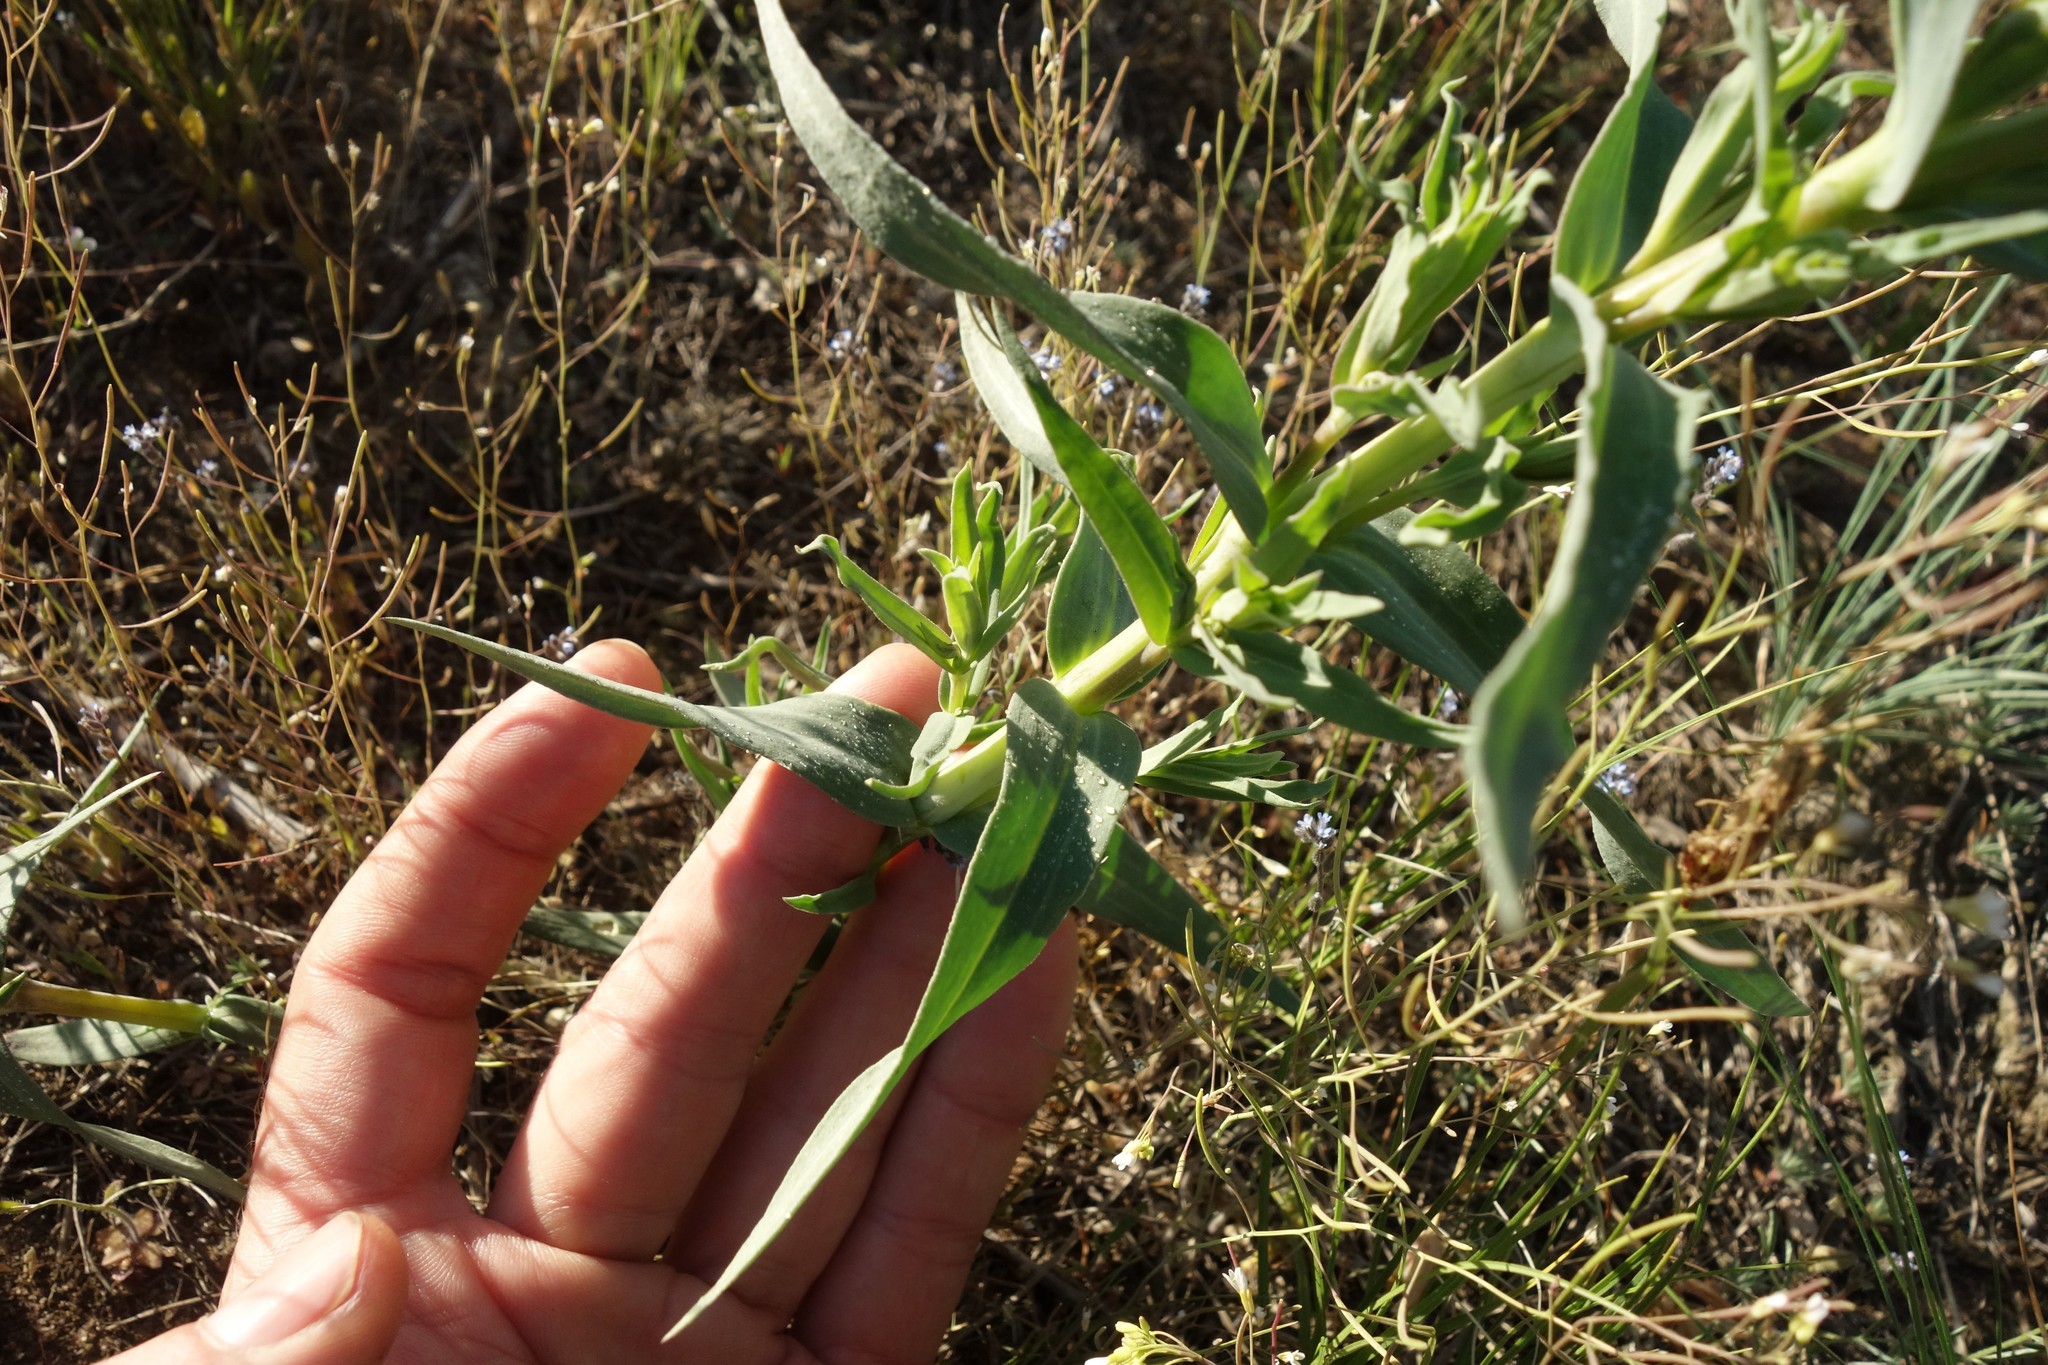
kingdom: Plantae
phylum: Tracheophyta
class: Magnoliopsida
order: Caryophyllales
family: Caryophyllaceae
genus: Gypsophila
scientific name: Gypsophila paniculata
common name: Baby's-breath
